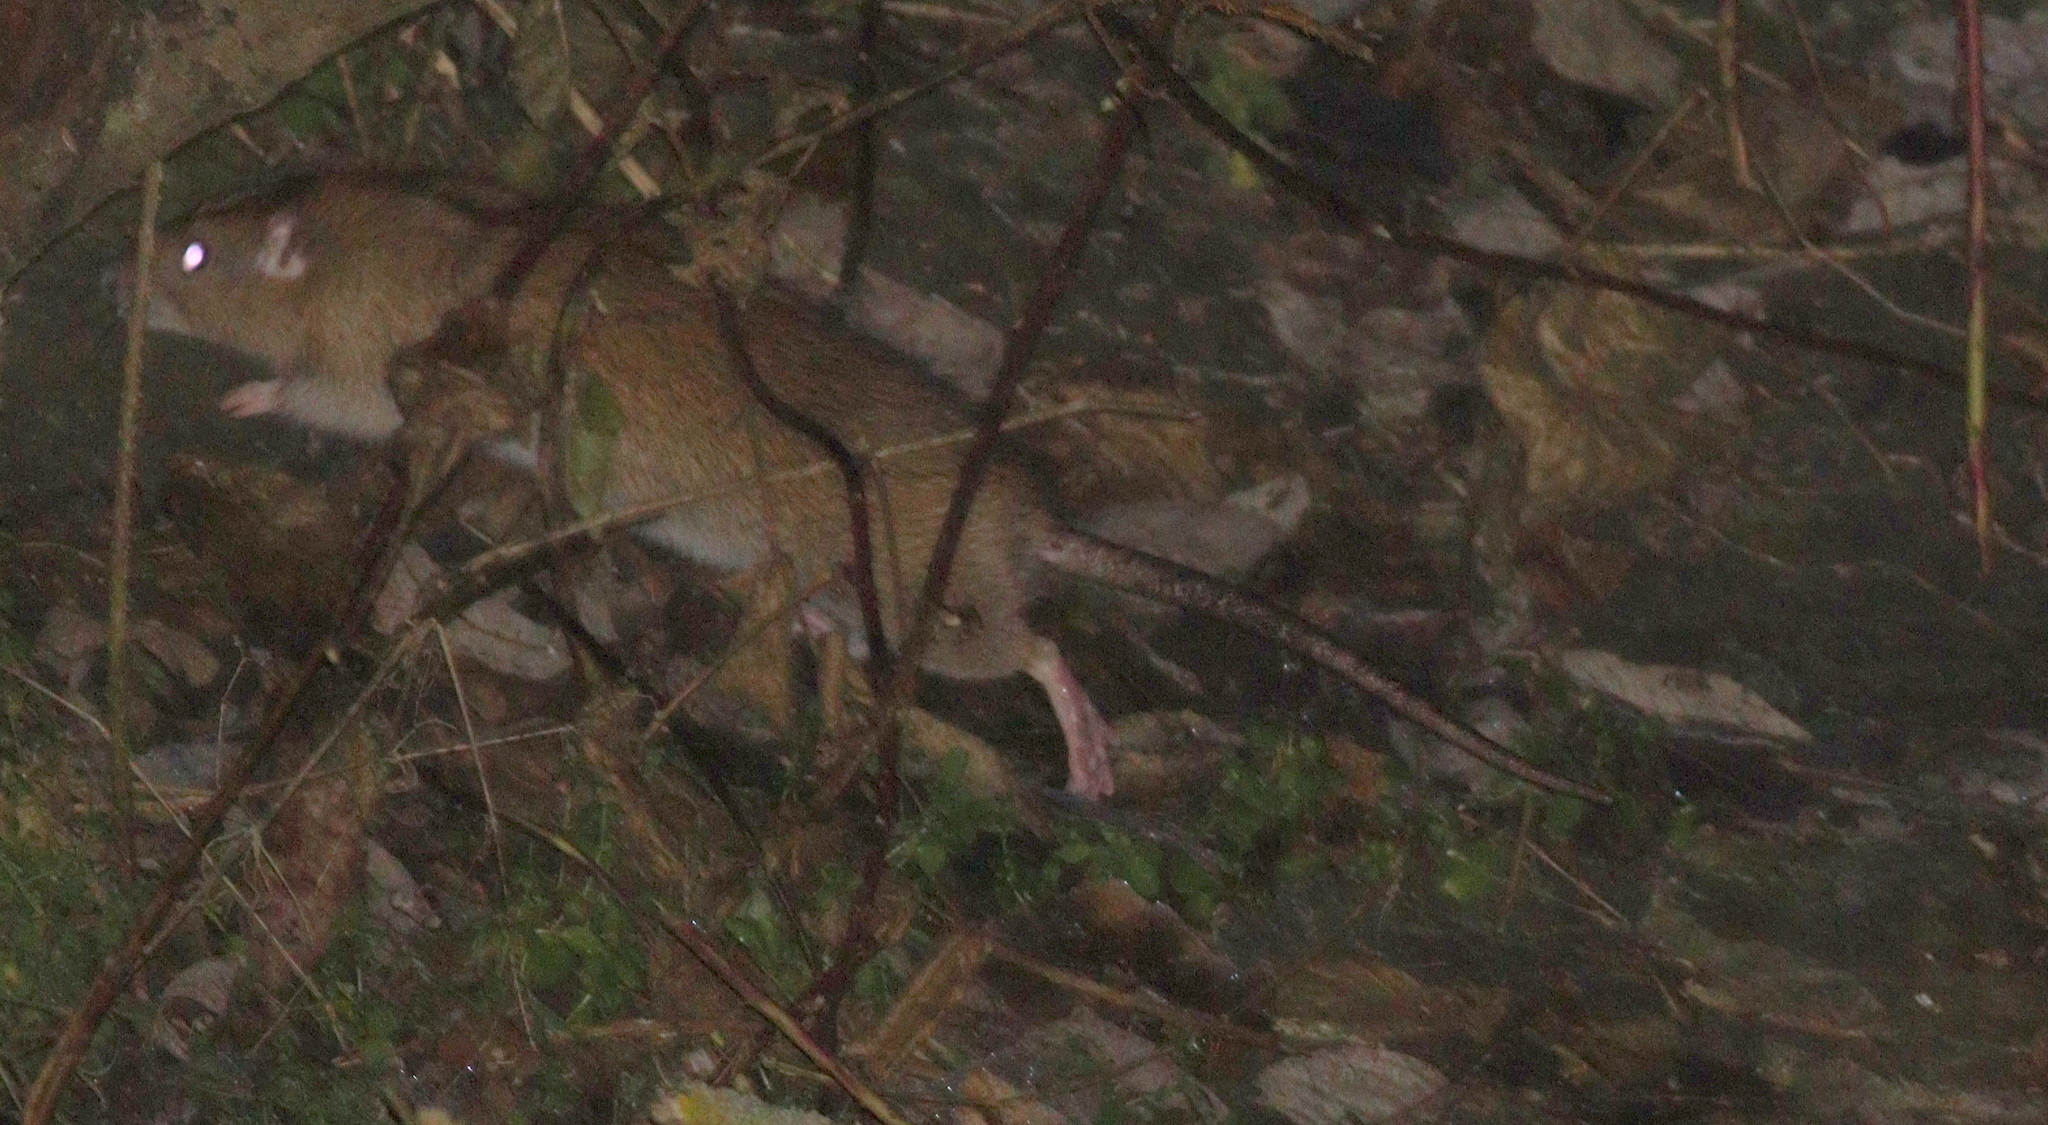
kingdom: Animalia
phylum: Chordata
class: Mammalia
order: Rodentia
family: Muridae
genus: Rattus
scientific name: Rattus norvegicus
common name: Brown rat
